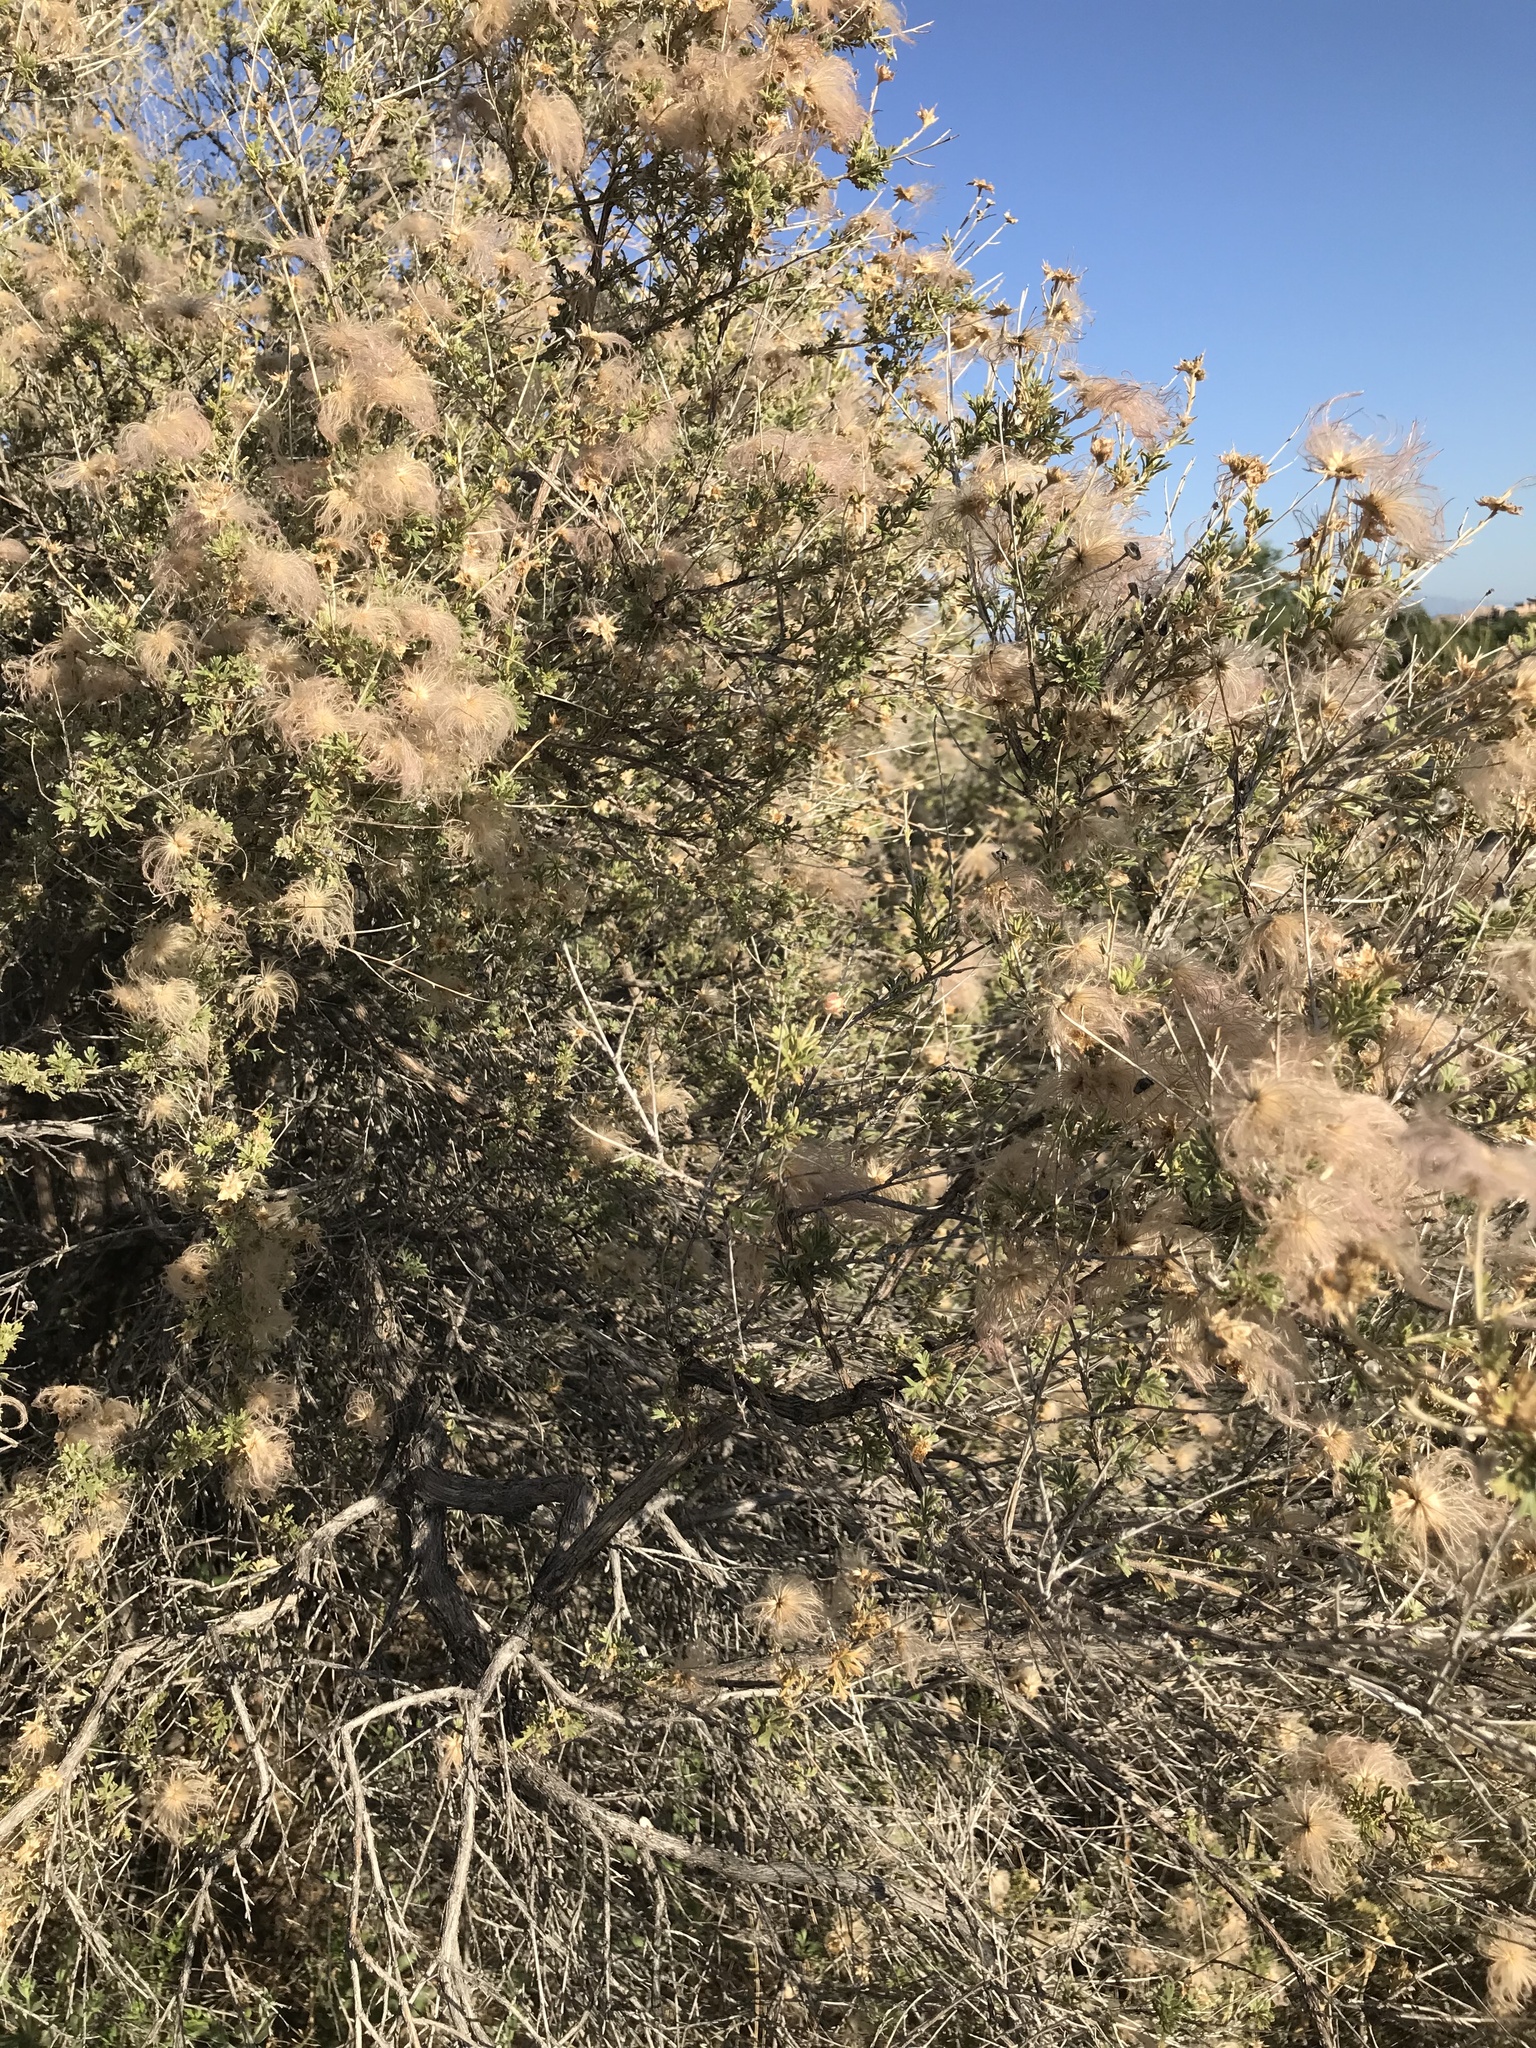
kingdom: Plantae
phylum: Tracheophyta
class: Magnoliopsida
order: Rosales
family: Rosaceae
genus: Fallugia
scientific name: Fallugia paradoxa
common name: Apache-plume
